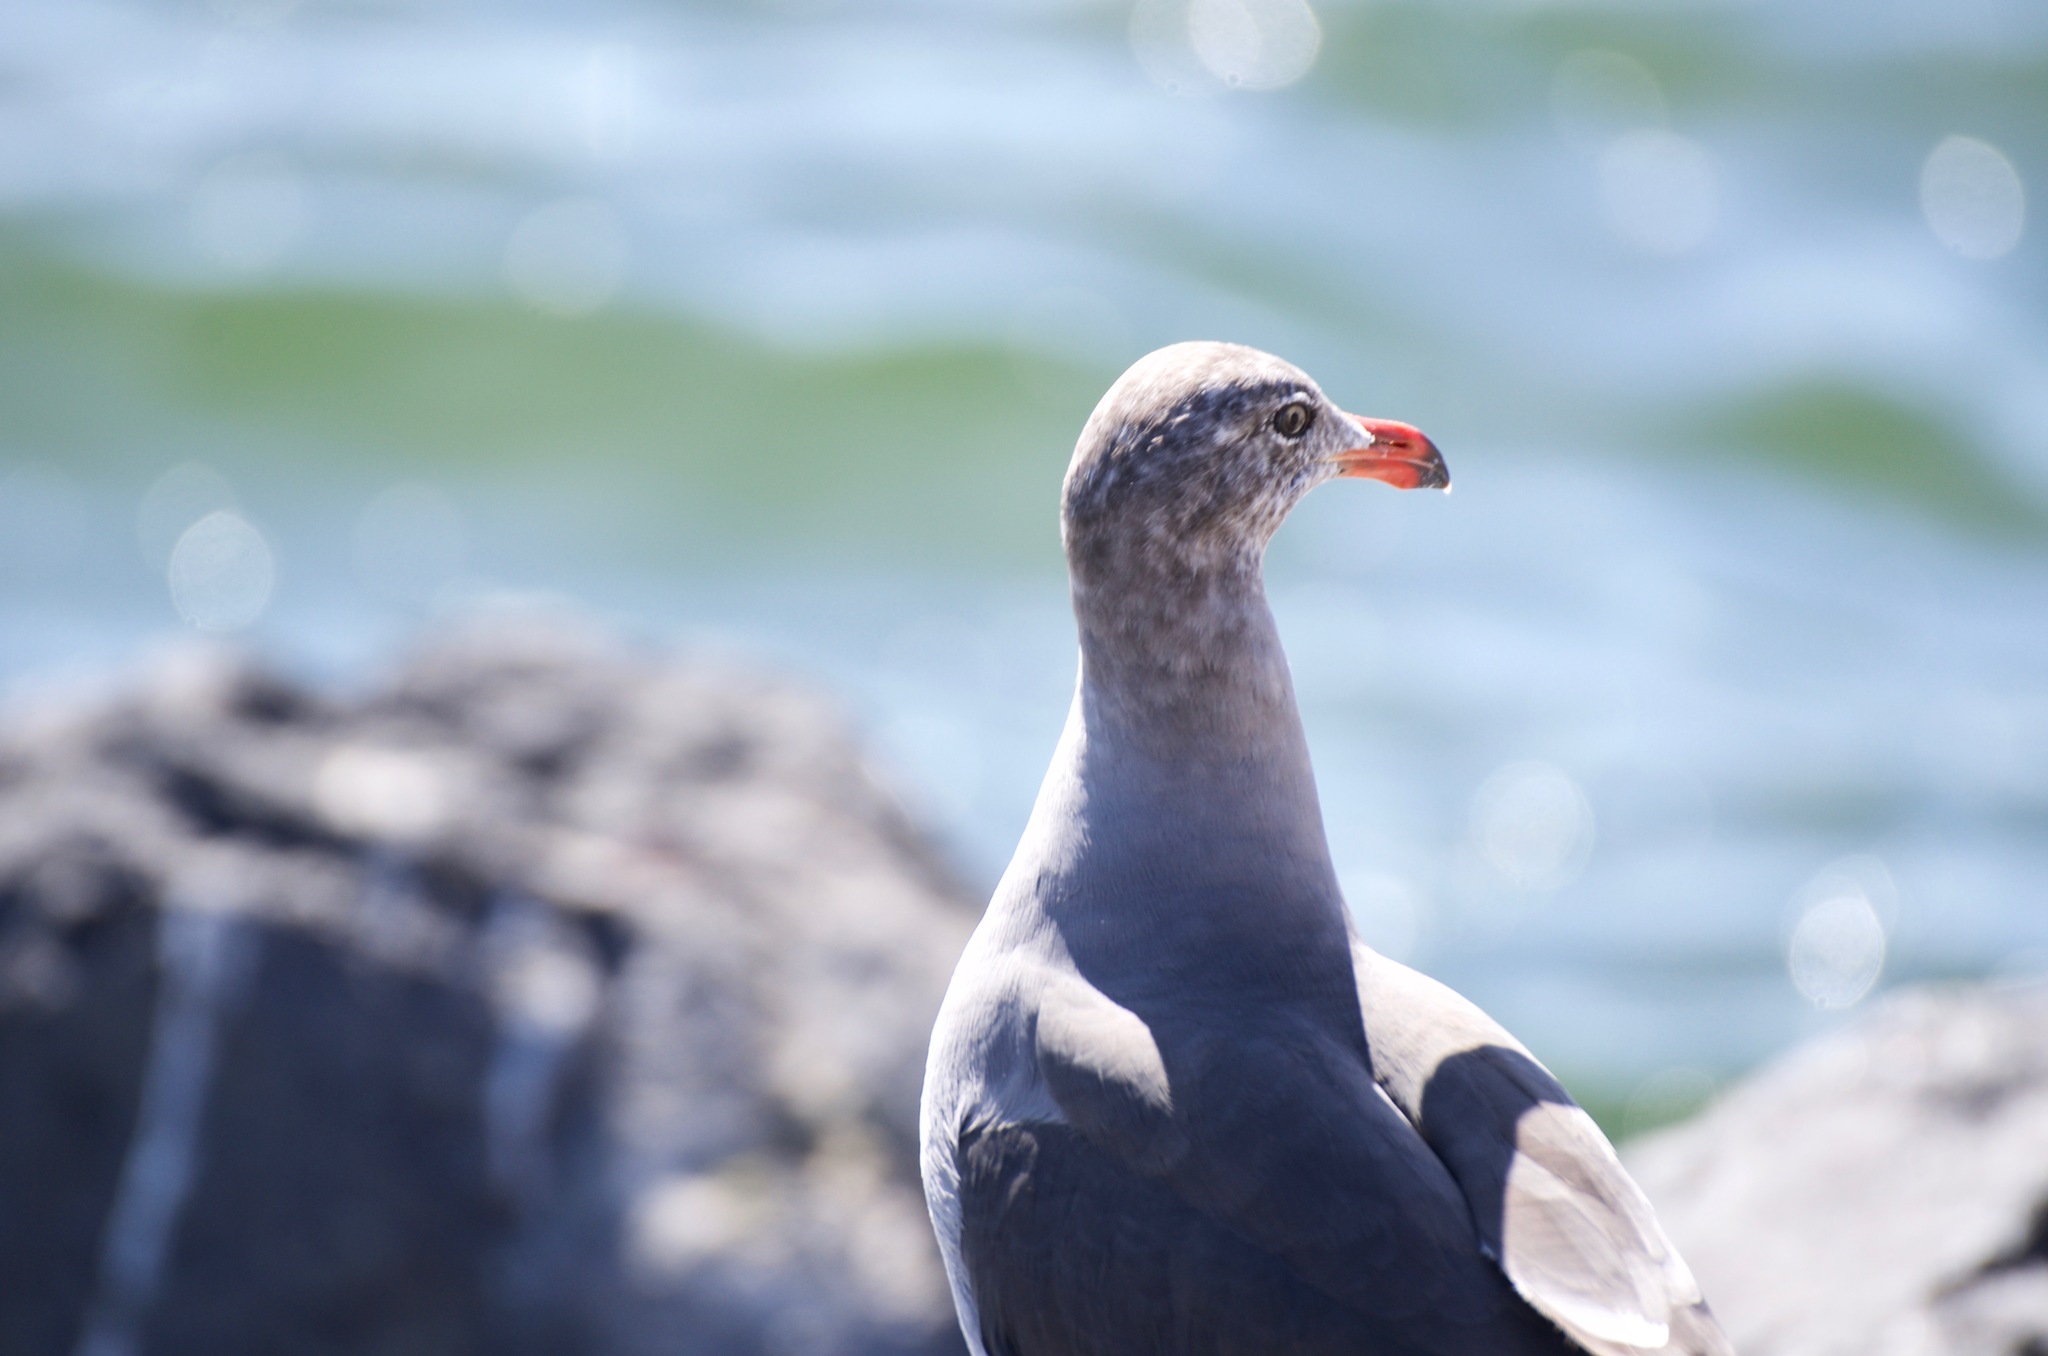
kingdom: Animalia
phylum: Chordata
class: Aves
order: Charadriiformes
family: Laridae
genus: Larus
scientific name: Larus heermanni
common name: Heermann's gull
